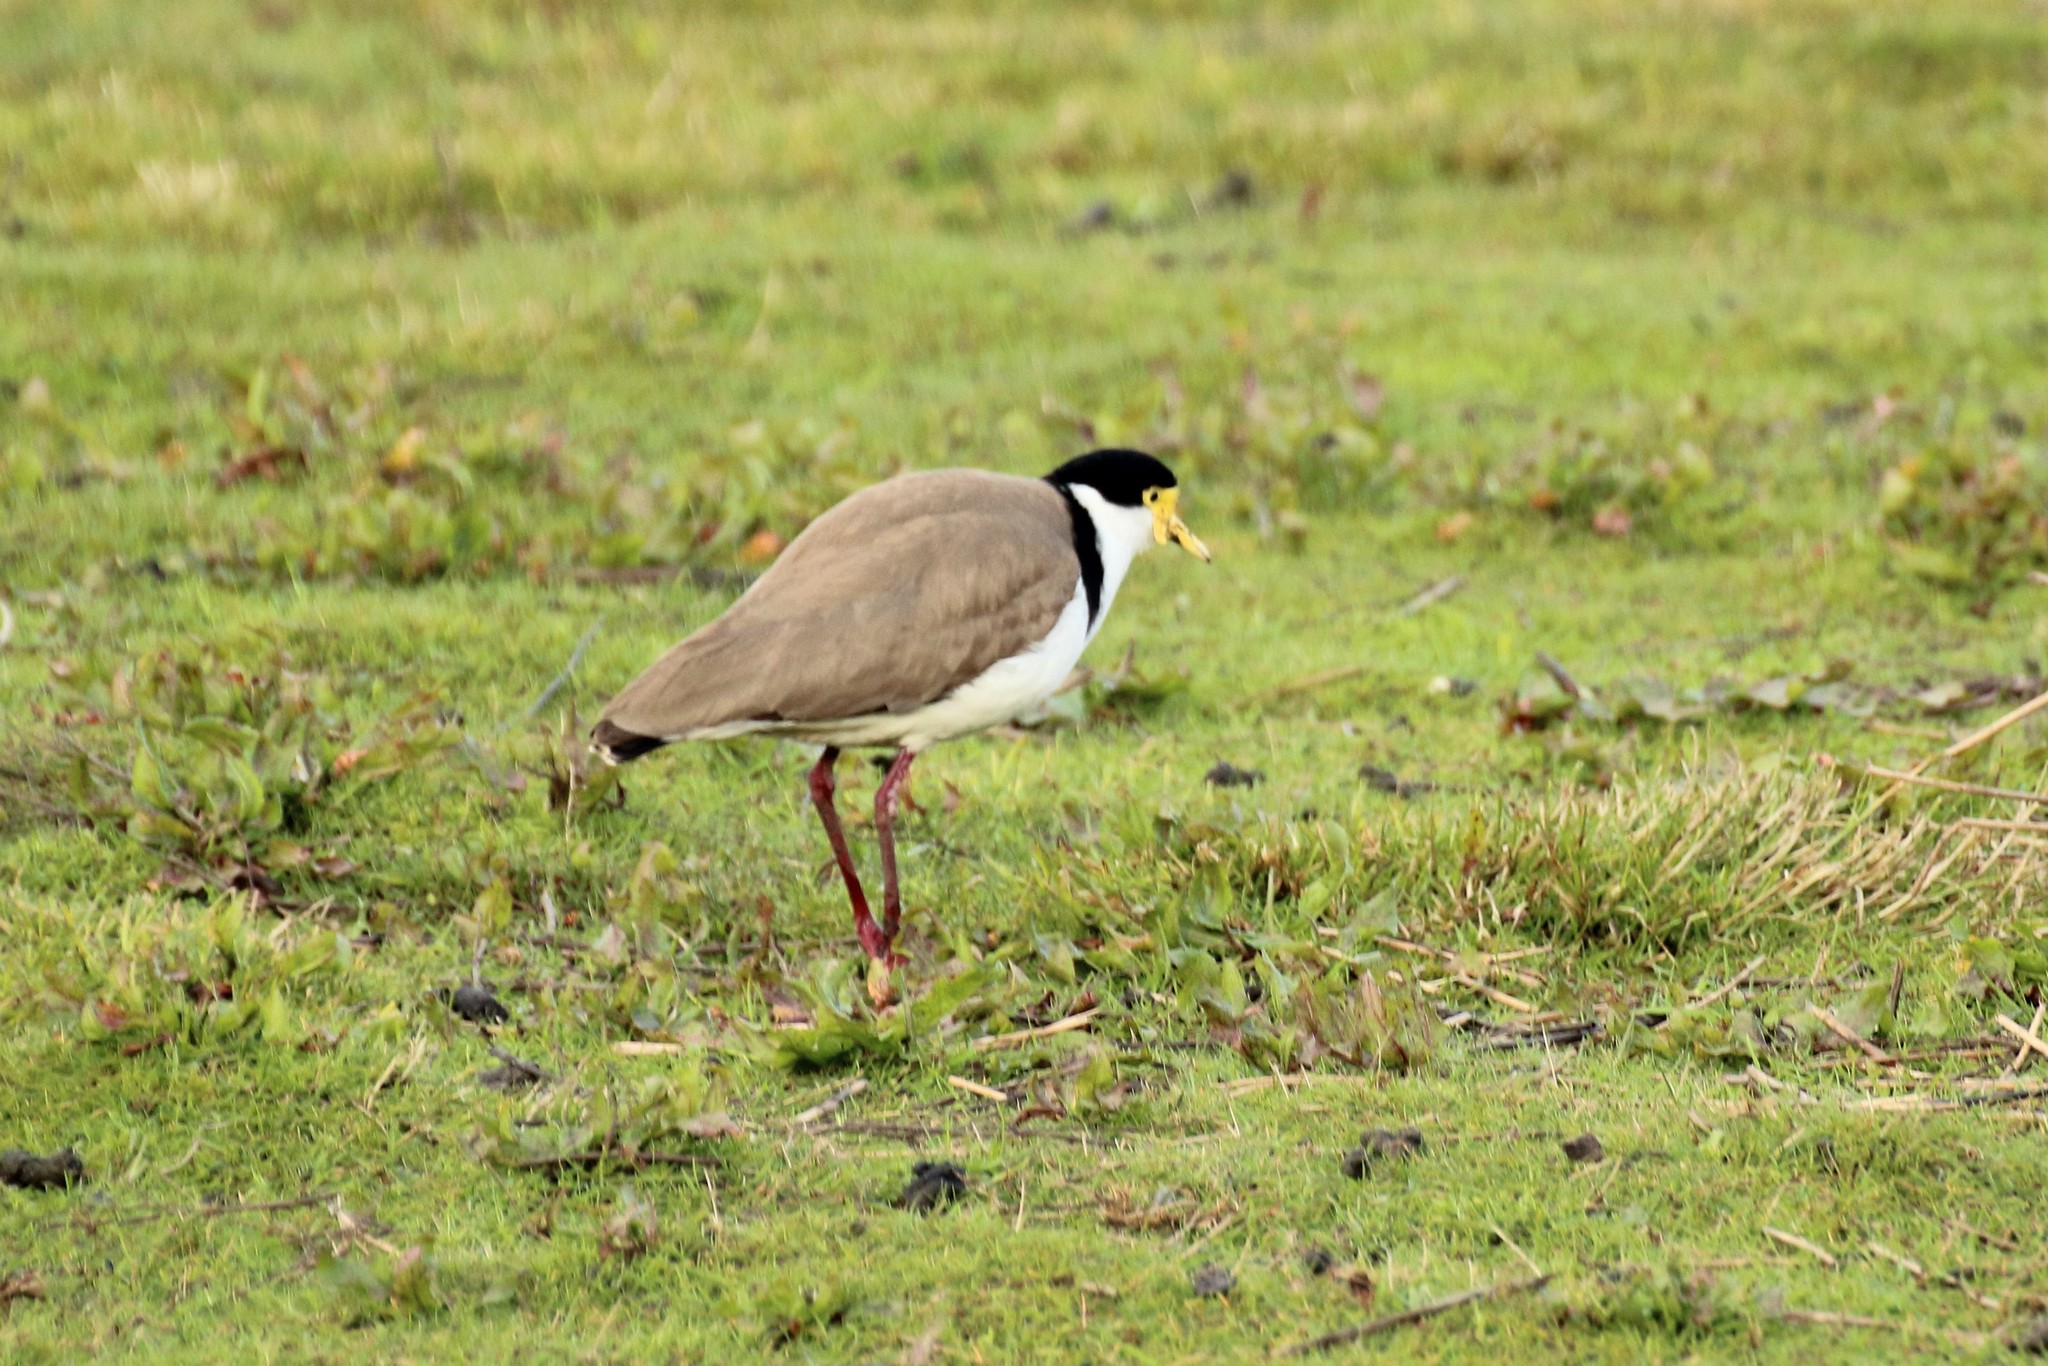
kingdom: Animalia
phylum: Chordata
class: Aves
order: Charadriiformes
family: Charadriidae
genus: Vanellus
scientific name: Vanellus miles
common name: Masked lapwing
